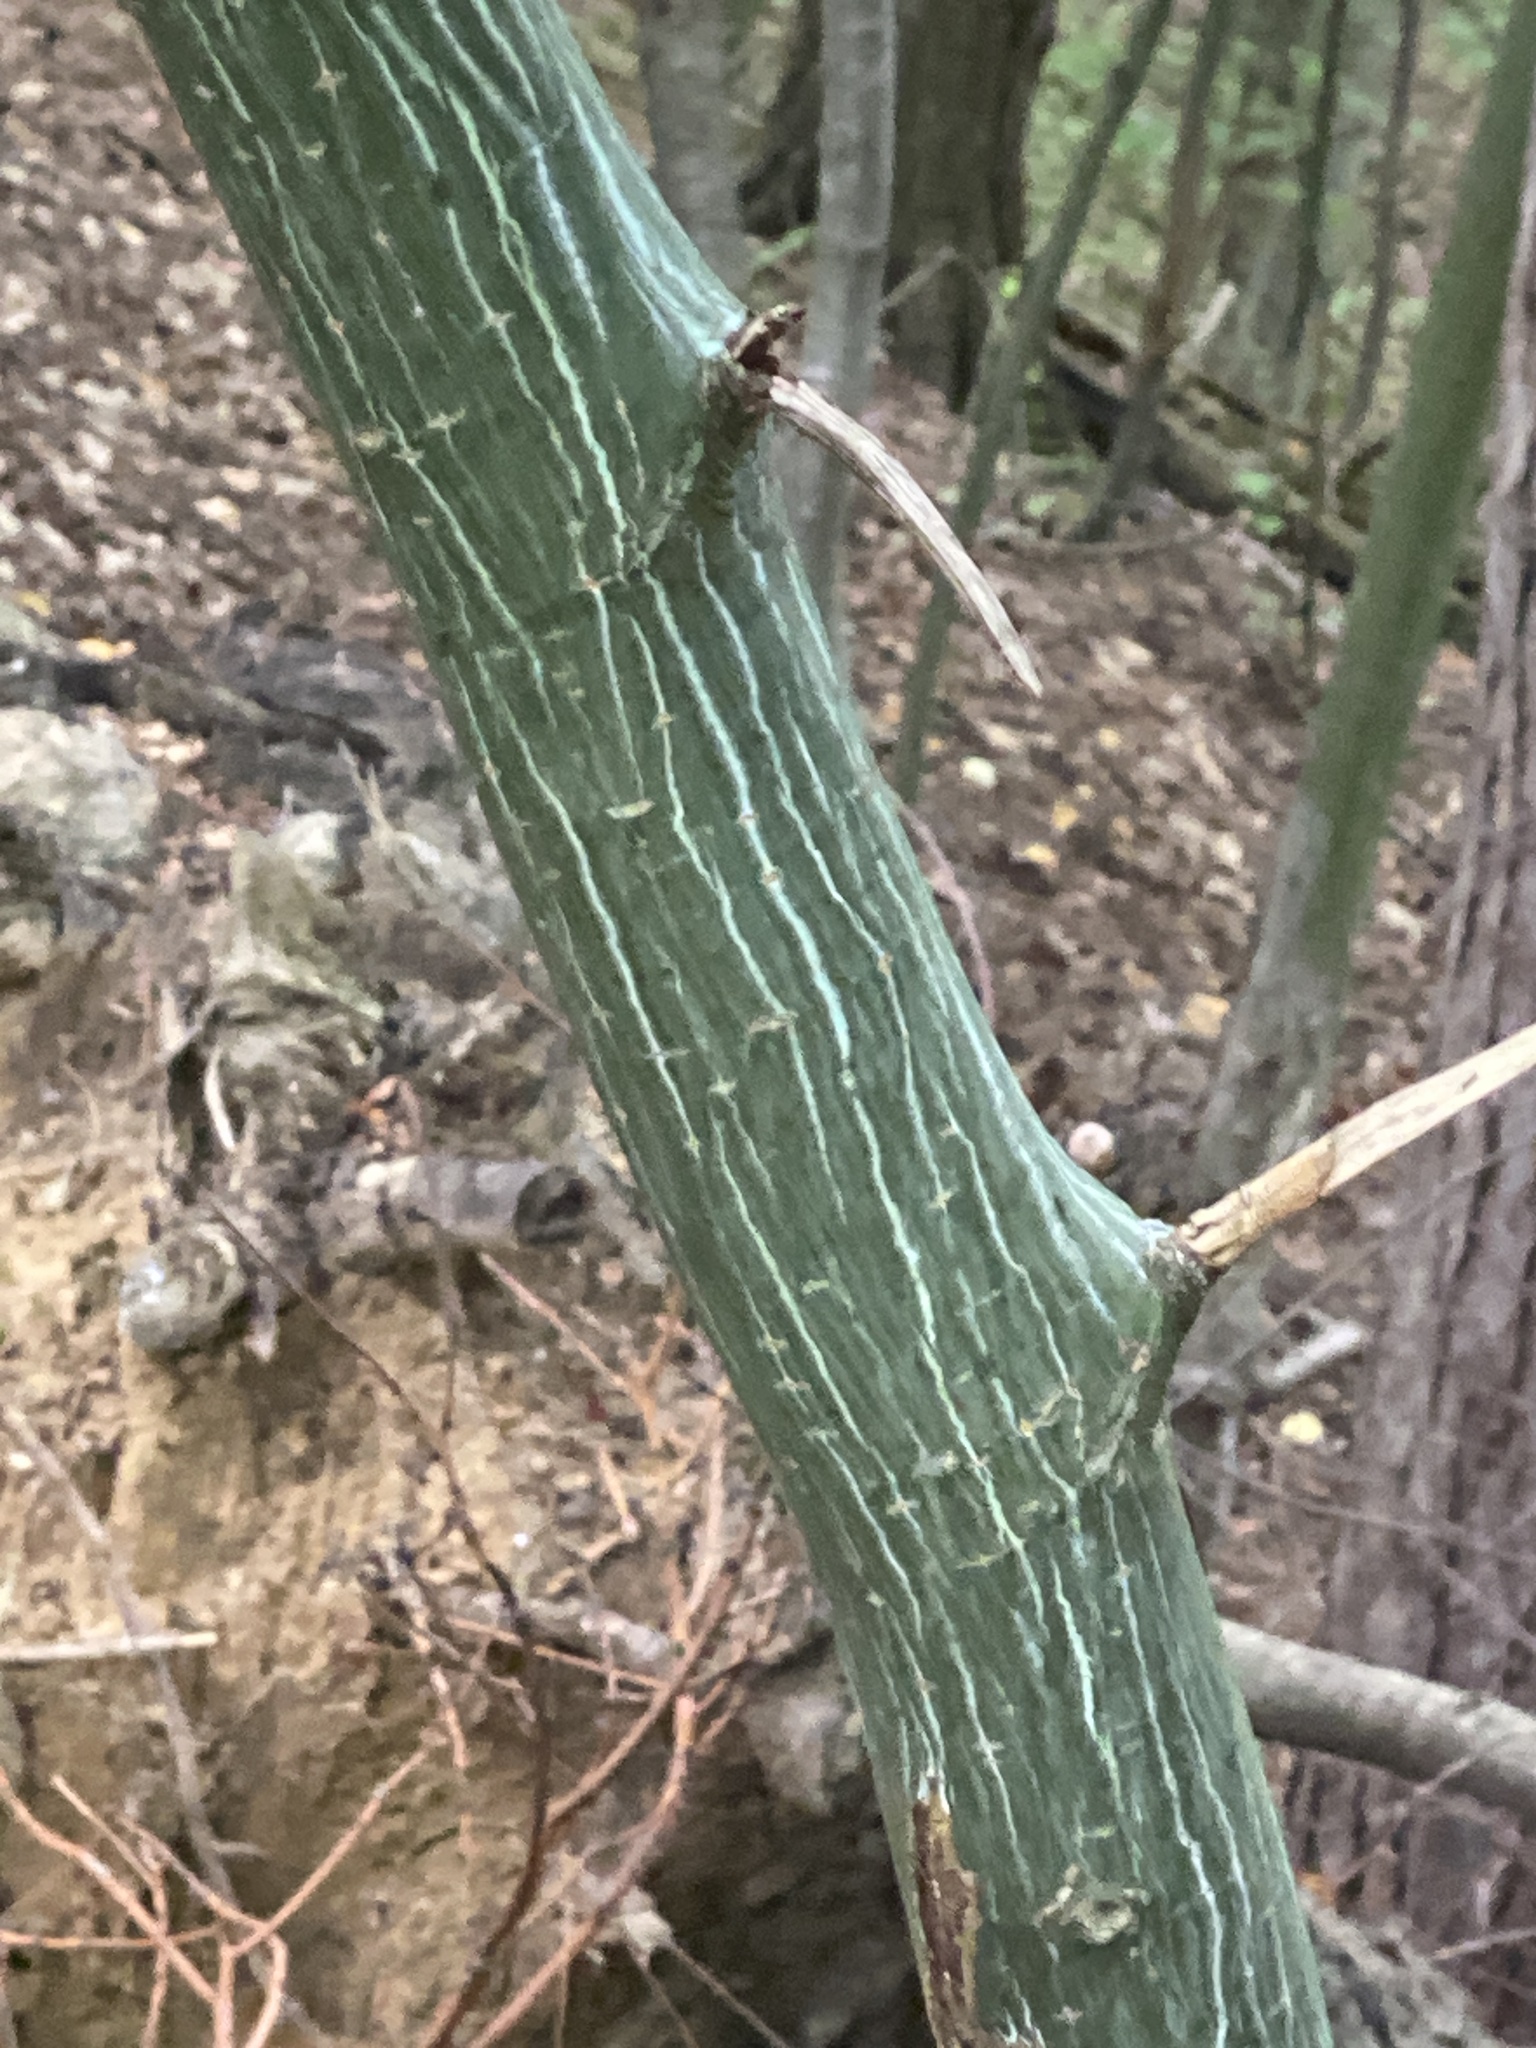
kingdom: Plantae
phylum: Tracheophyta
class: Magnoliopsida
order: Sapindales
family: Sapindaceae
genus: Acer
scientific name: Acer tegmentosum
